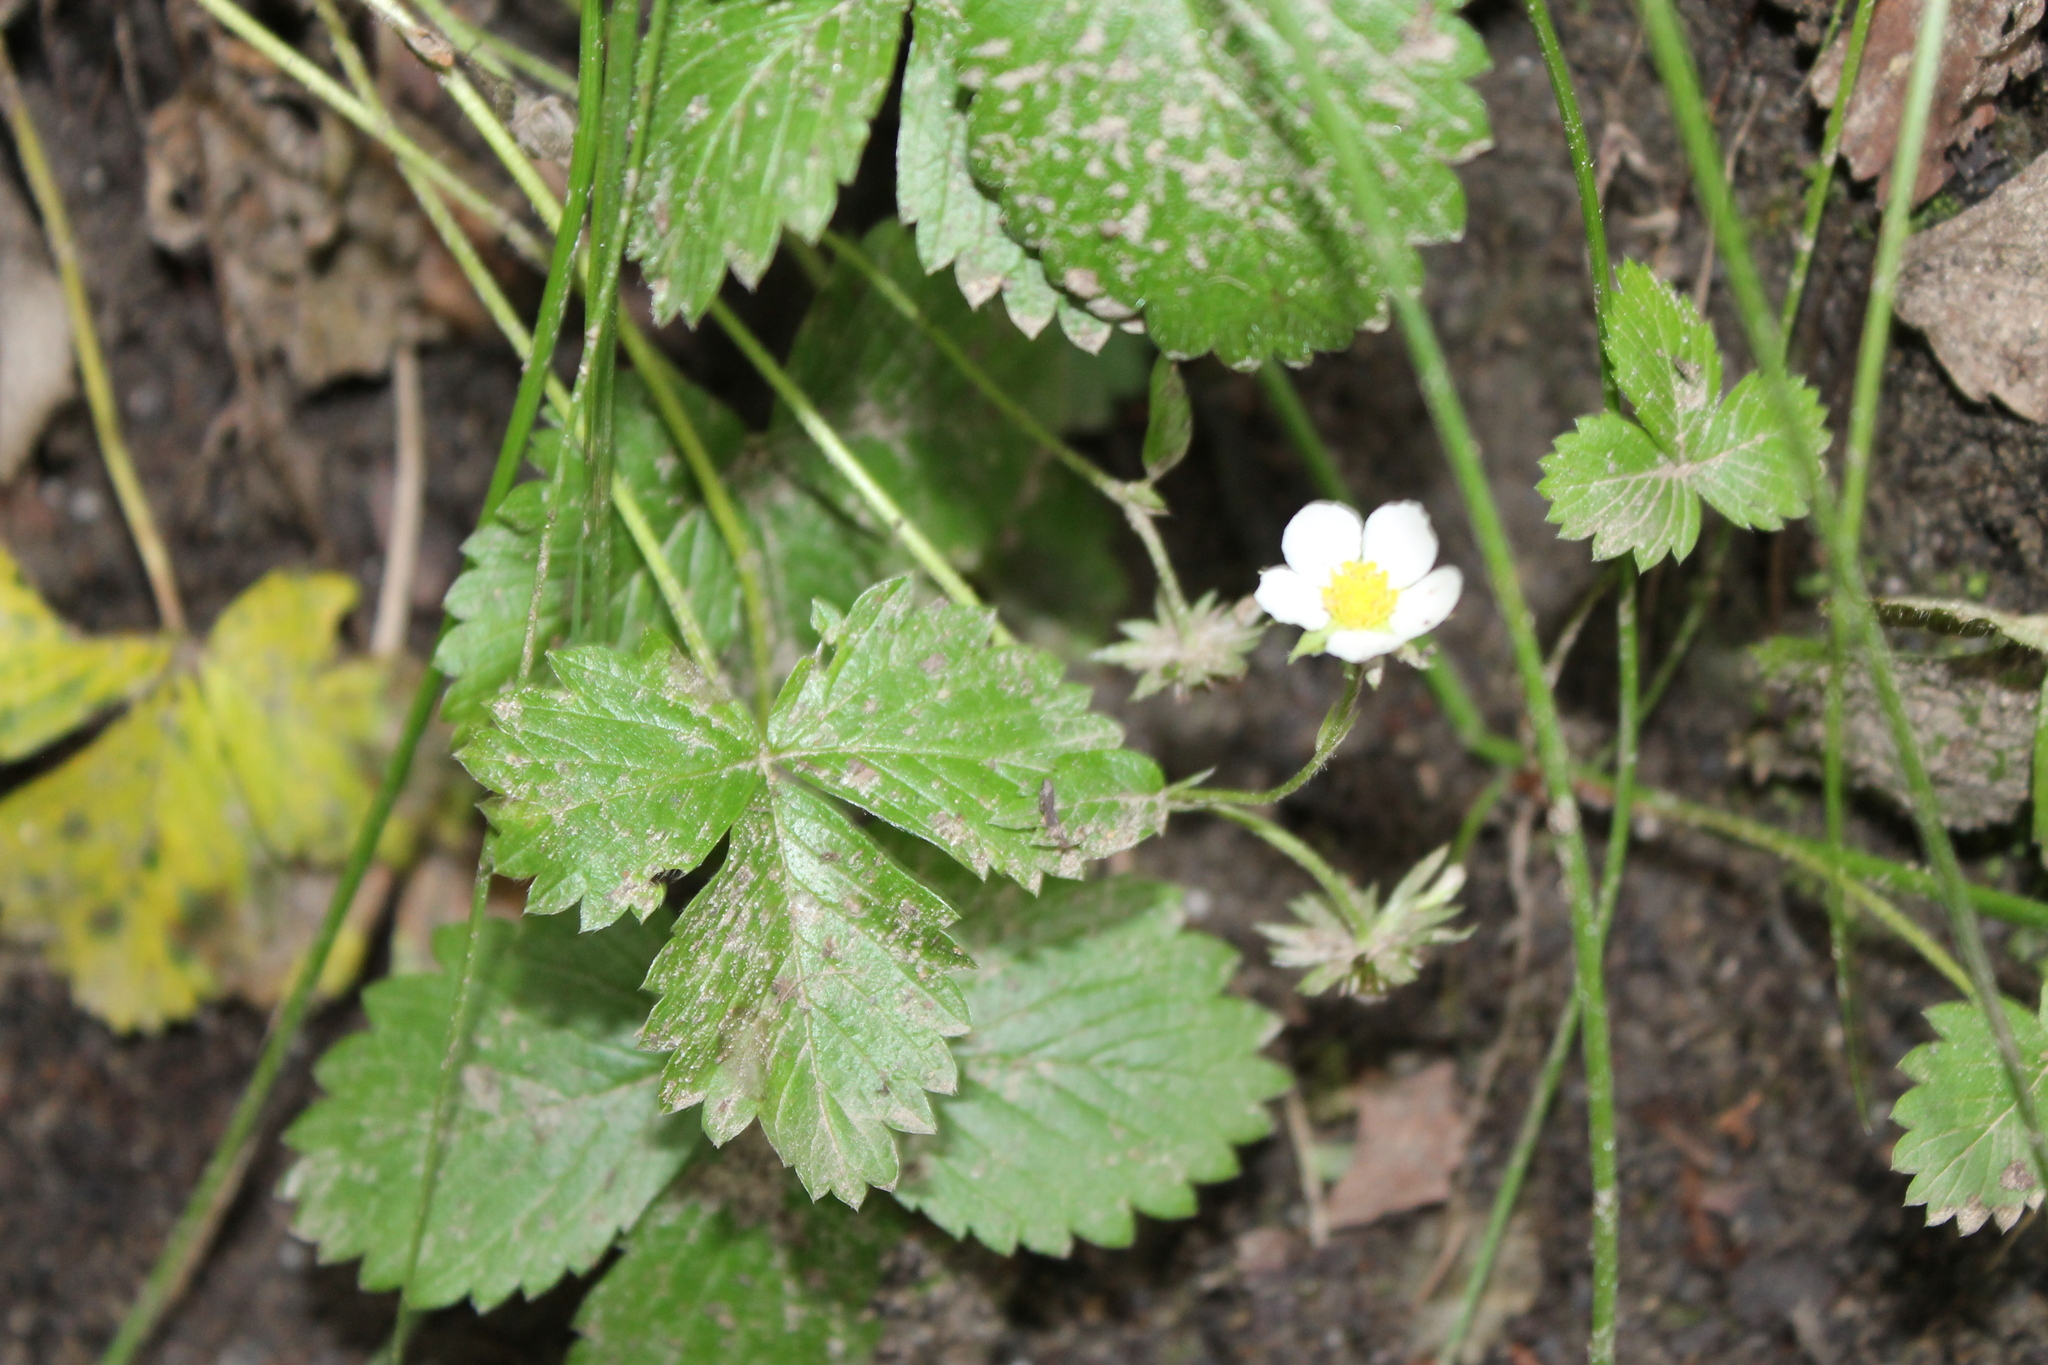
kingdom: Plantae
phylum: Tracheophyta
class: Magnoliopsida
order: Rosales
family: Rosaceae
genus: Fragaria
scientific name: Fragaria vesca
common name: Wild strawberry
